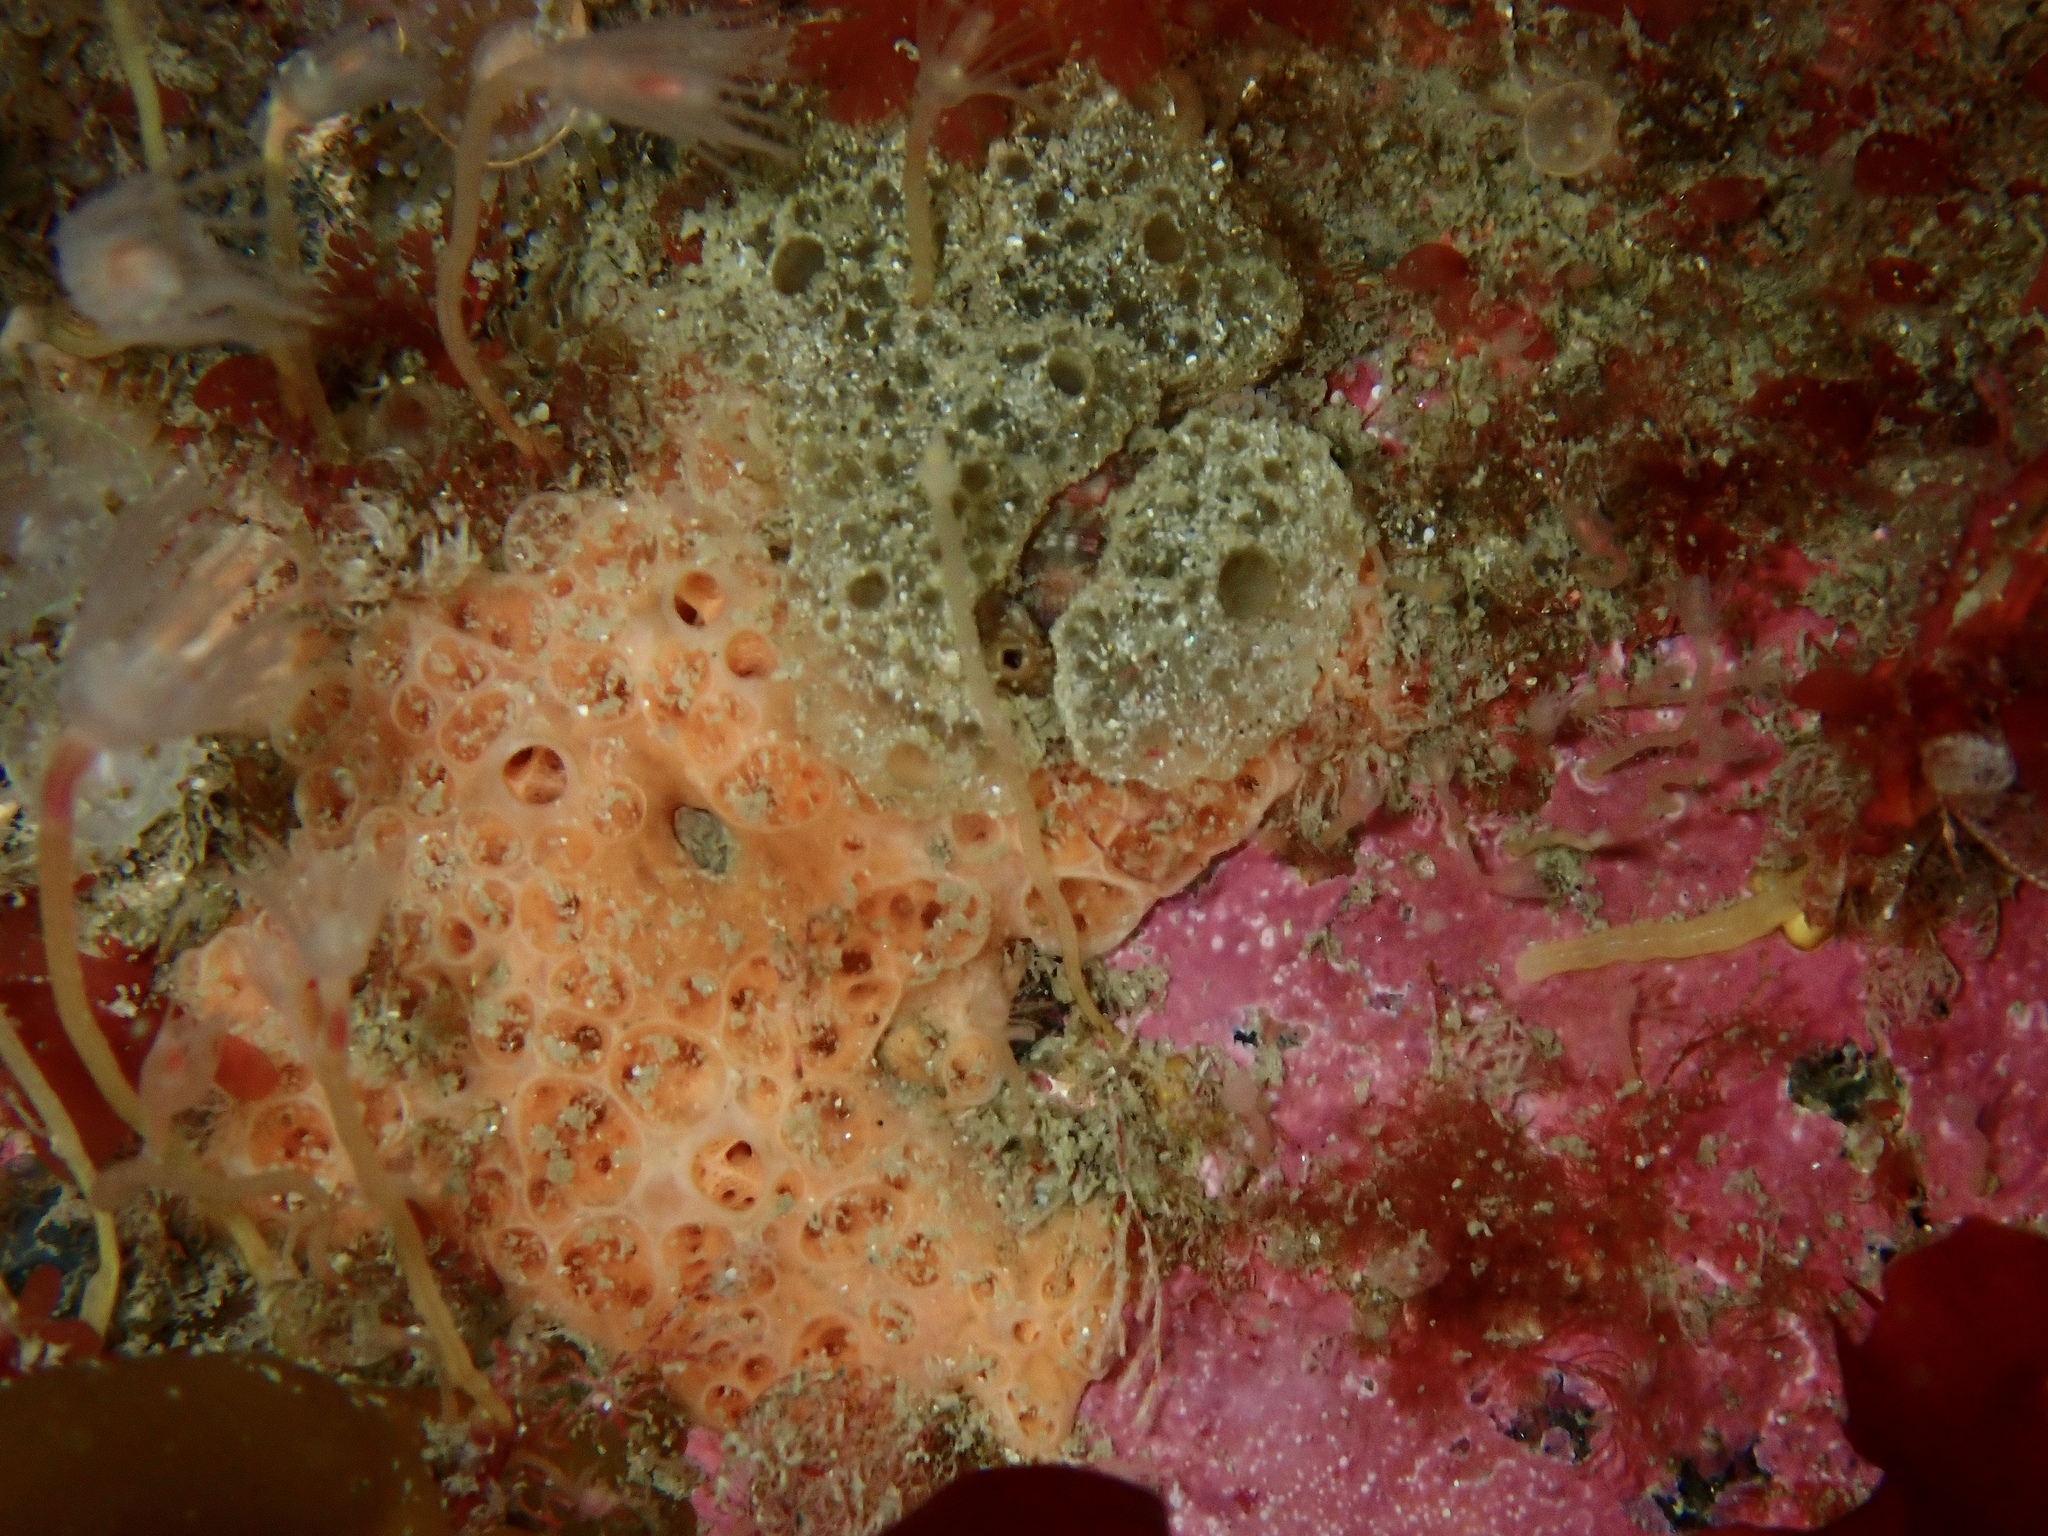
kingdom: Animalia
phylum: Porifera
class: Demospongiae
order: Poecilosclerida
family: Hymedesmiidae
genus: Hemimycale
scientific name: Hemimycale columella
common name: Crater sponge
